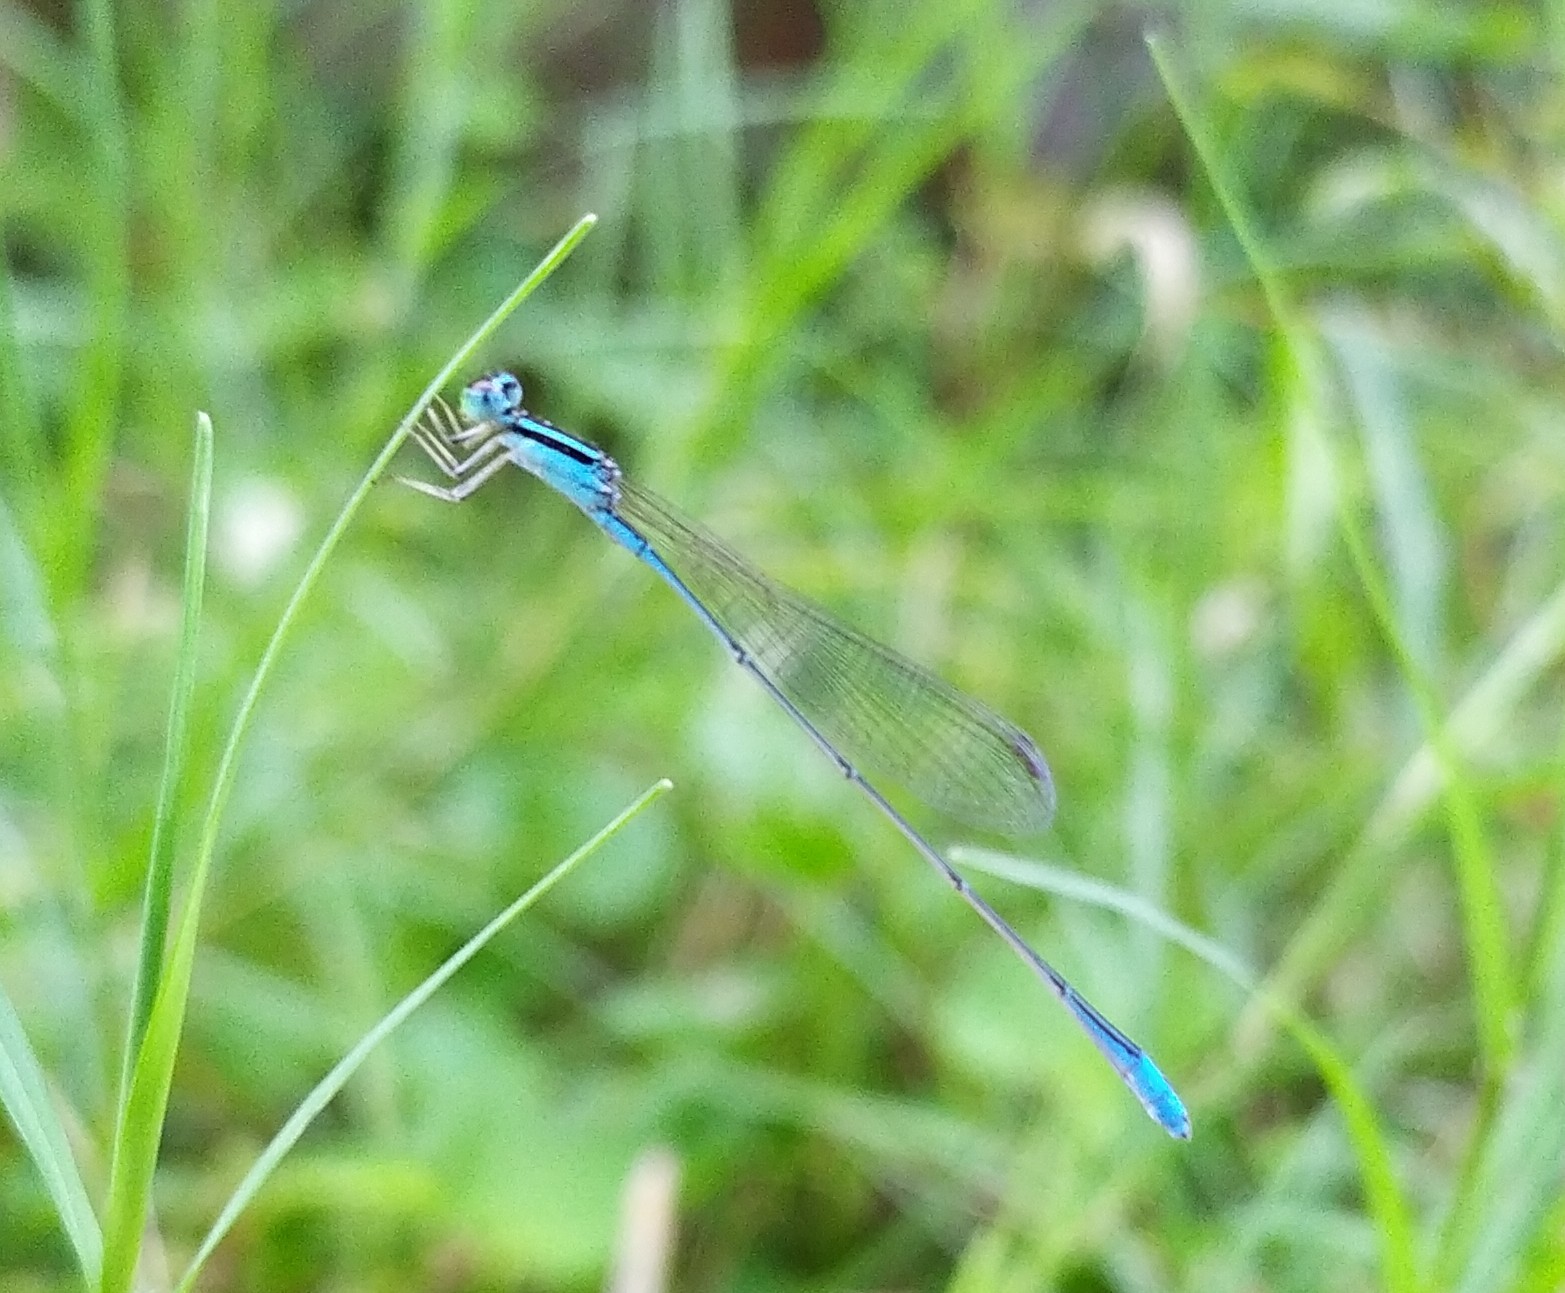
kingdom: Animalia
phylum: Arthropoda
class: Insecta
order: Odonata
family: Coenagrionidae
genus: Aciagrion
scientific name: Aciagrion occidentale
